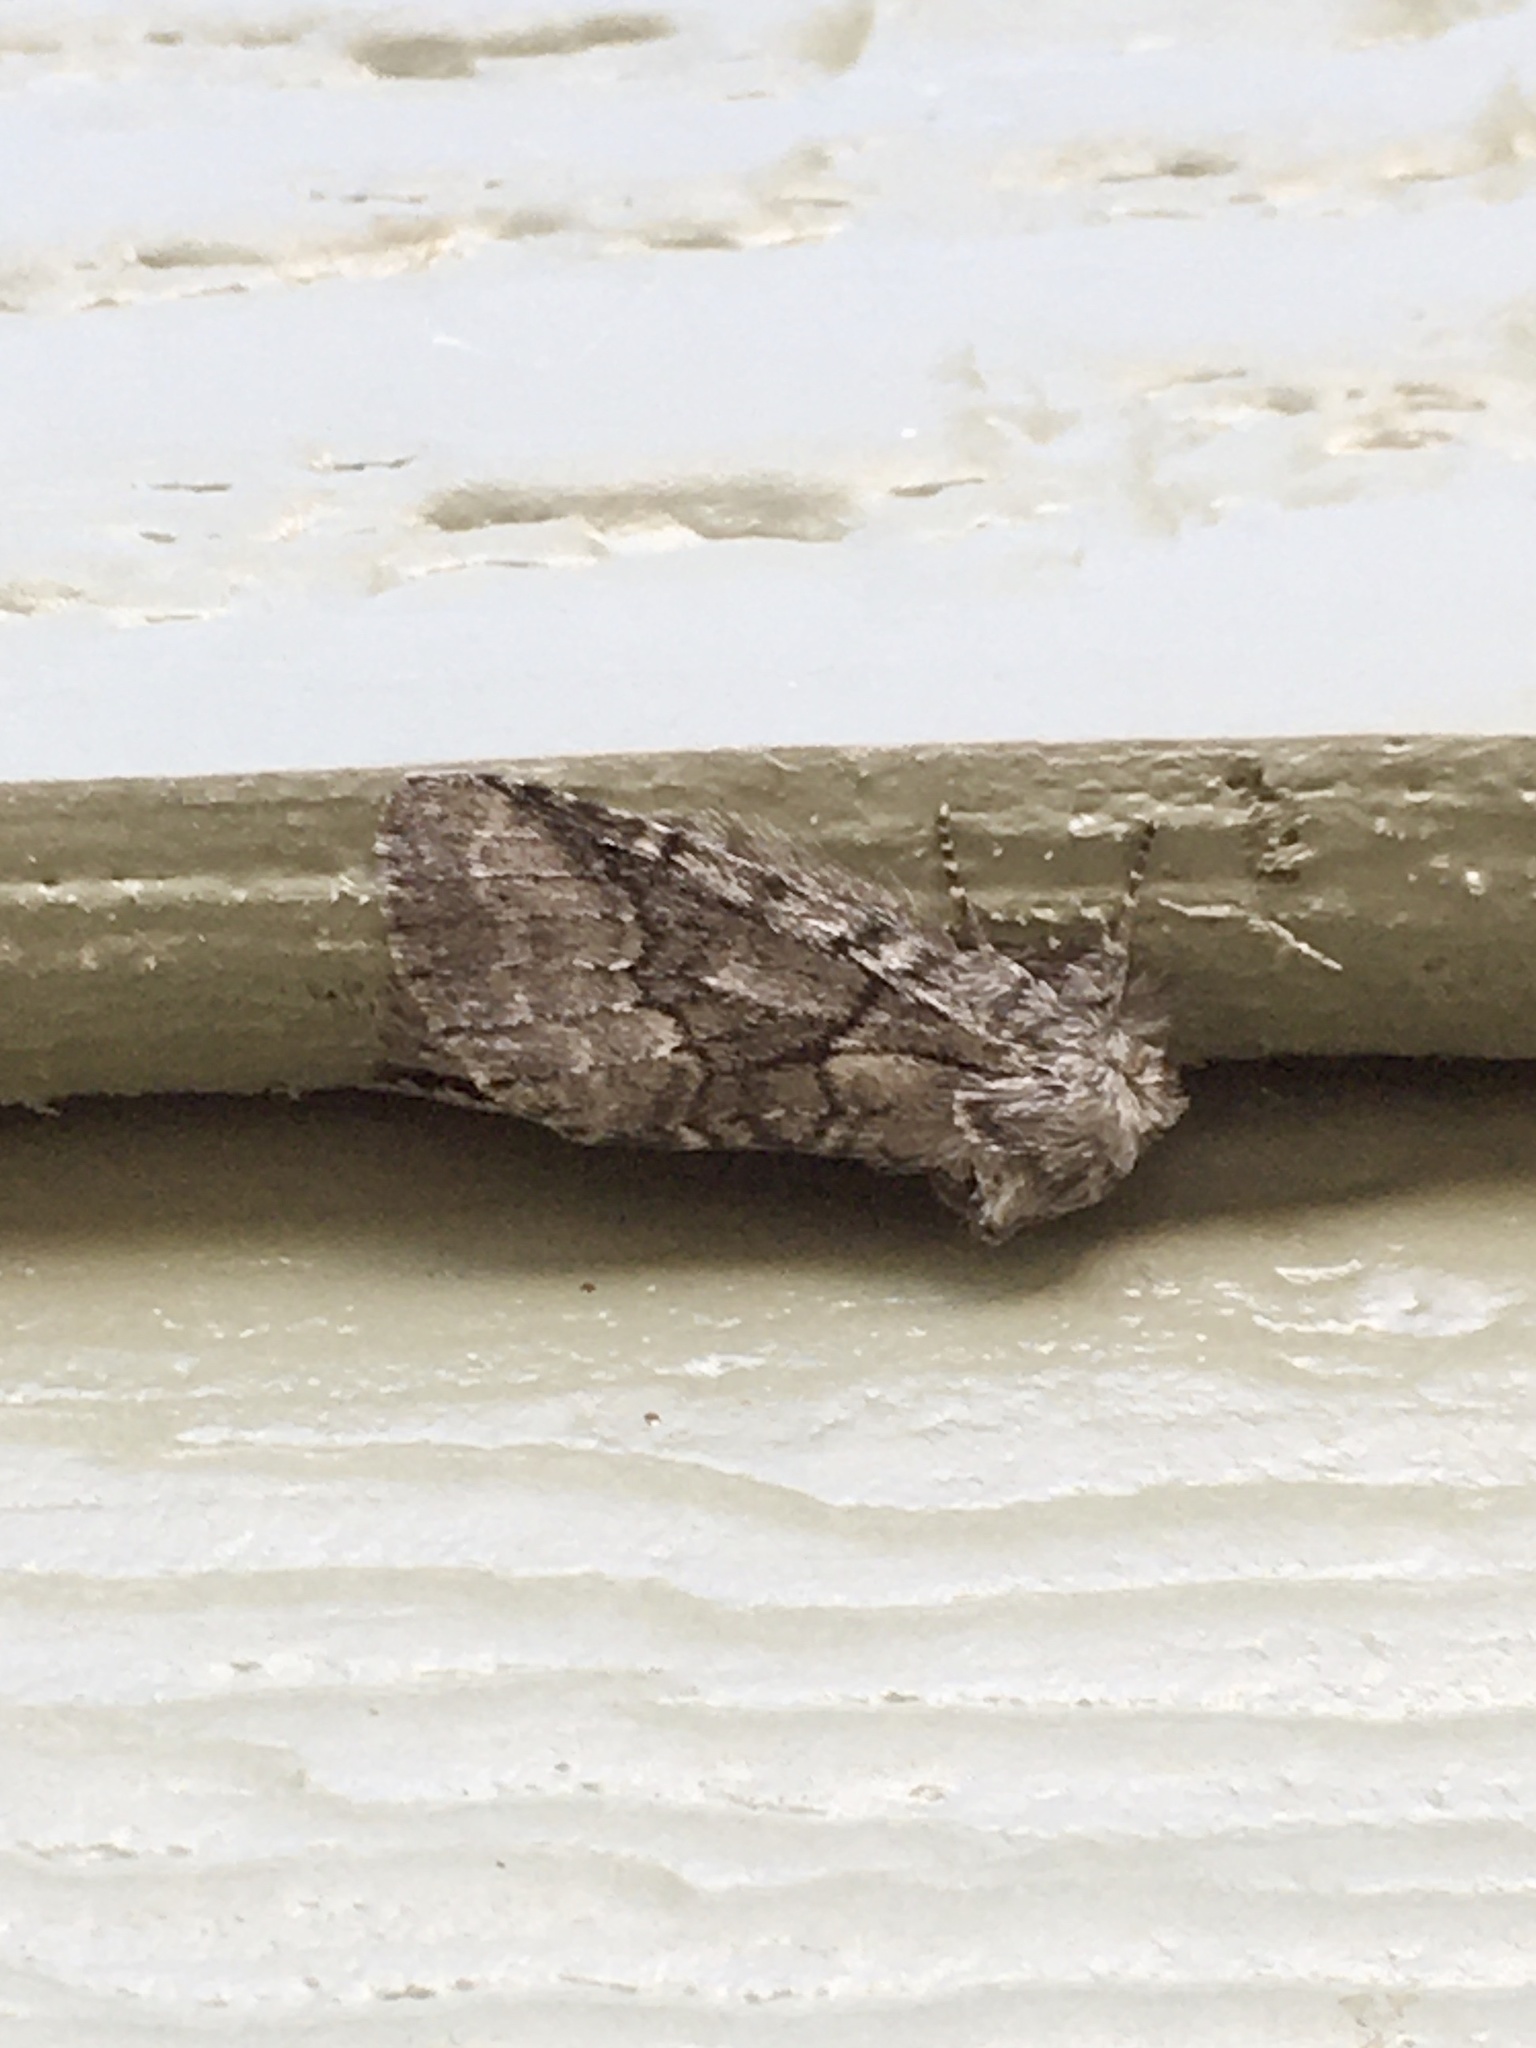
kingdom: Animalia
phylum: Arthropoda
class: Insecta
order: Lepidoptera
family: Notodontidae
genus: Lochmaeus
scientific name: Lochmaeus bilineata
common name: Double-lined prominent
